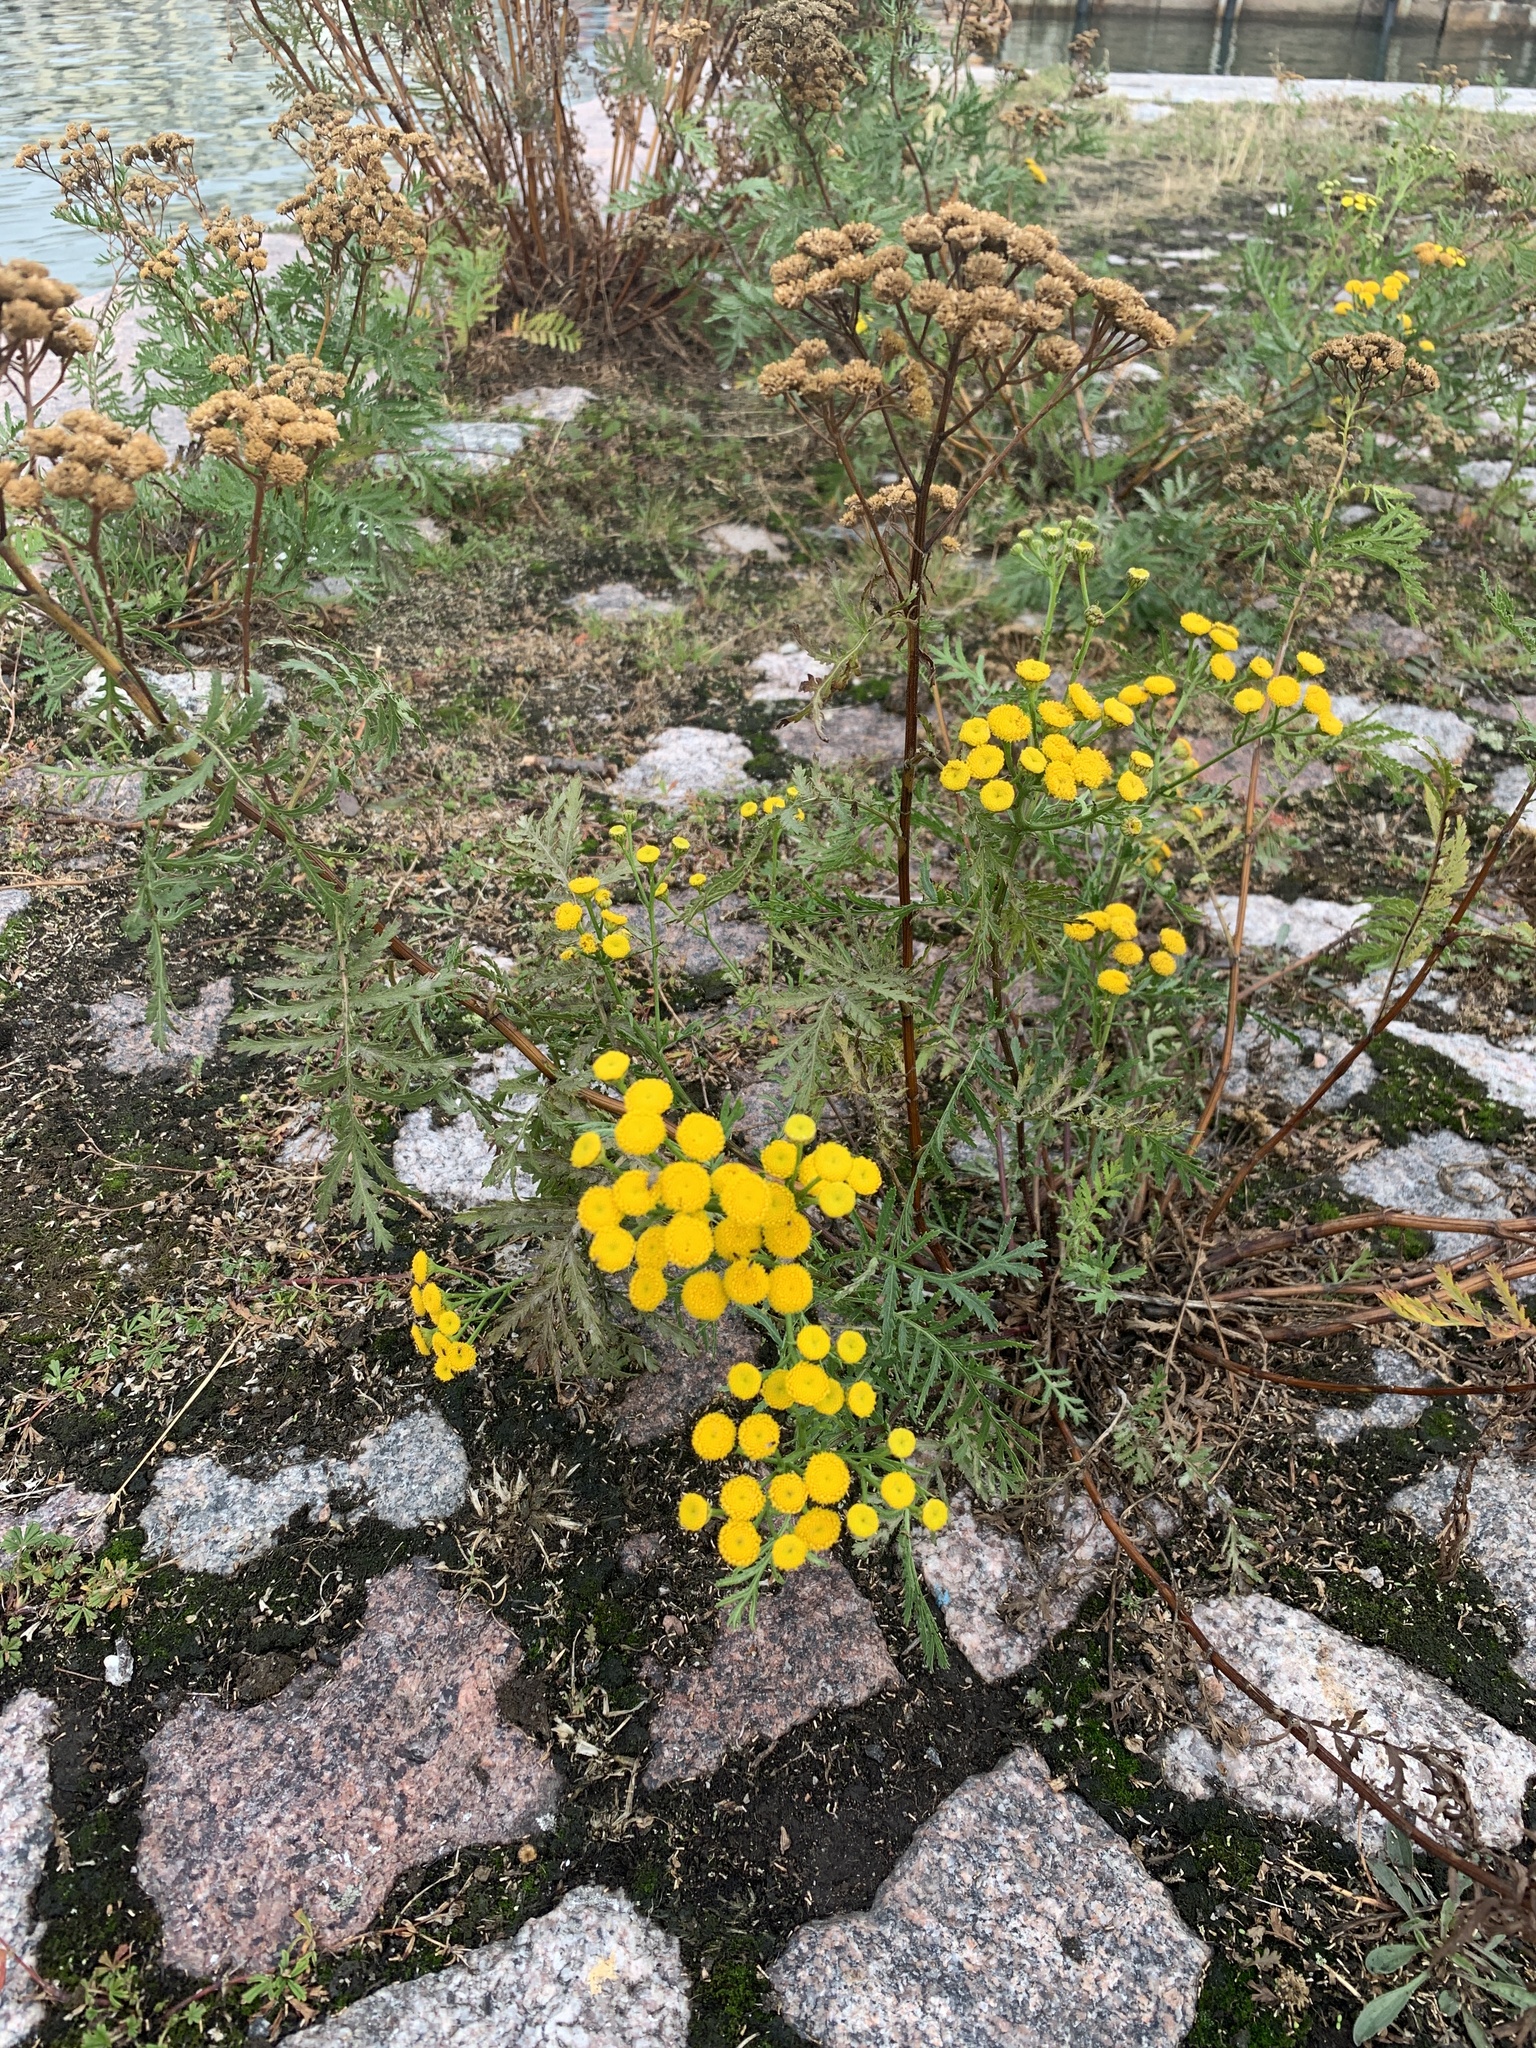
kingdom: Plantae
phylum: Tracheophyta
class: Magnoliopsida
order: Asterales
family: Asteraceae
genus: Tanacetum
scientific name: Tanacetum vulgare
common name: Common tansy
